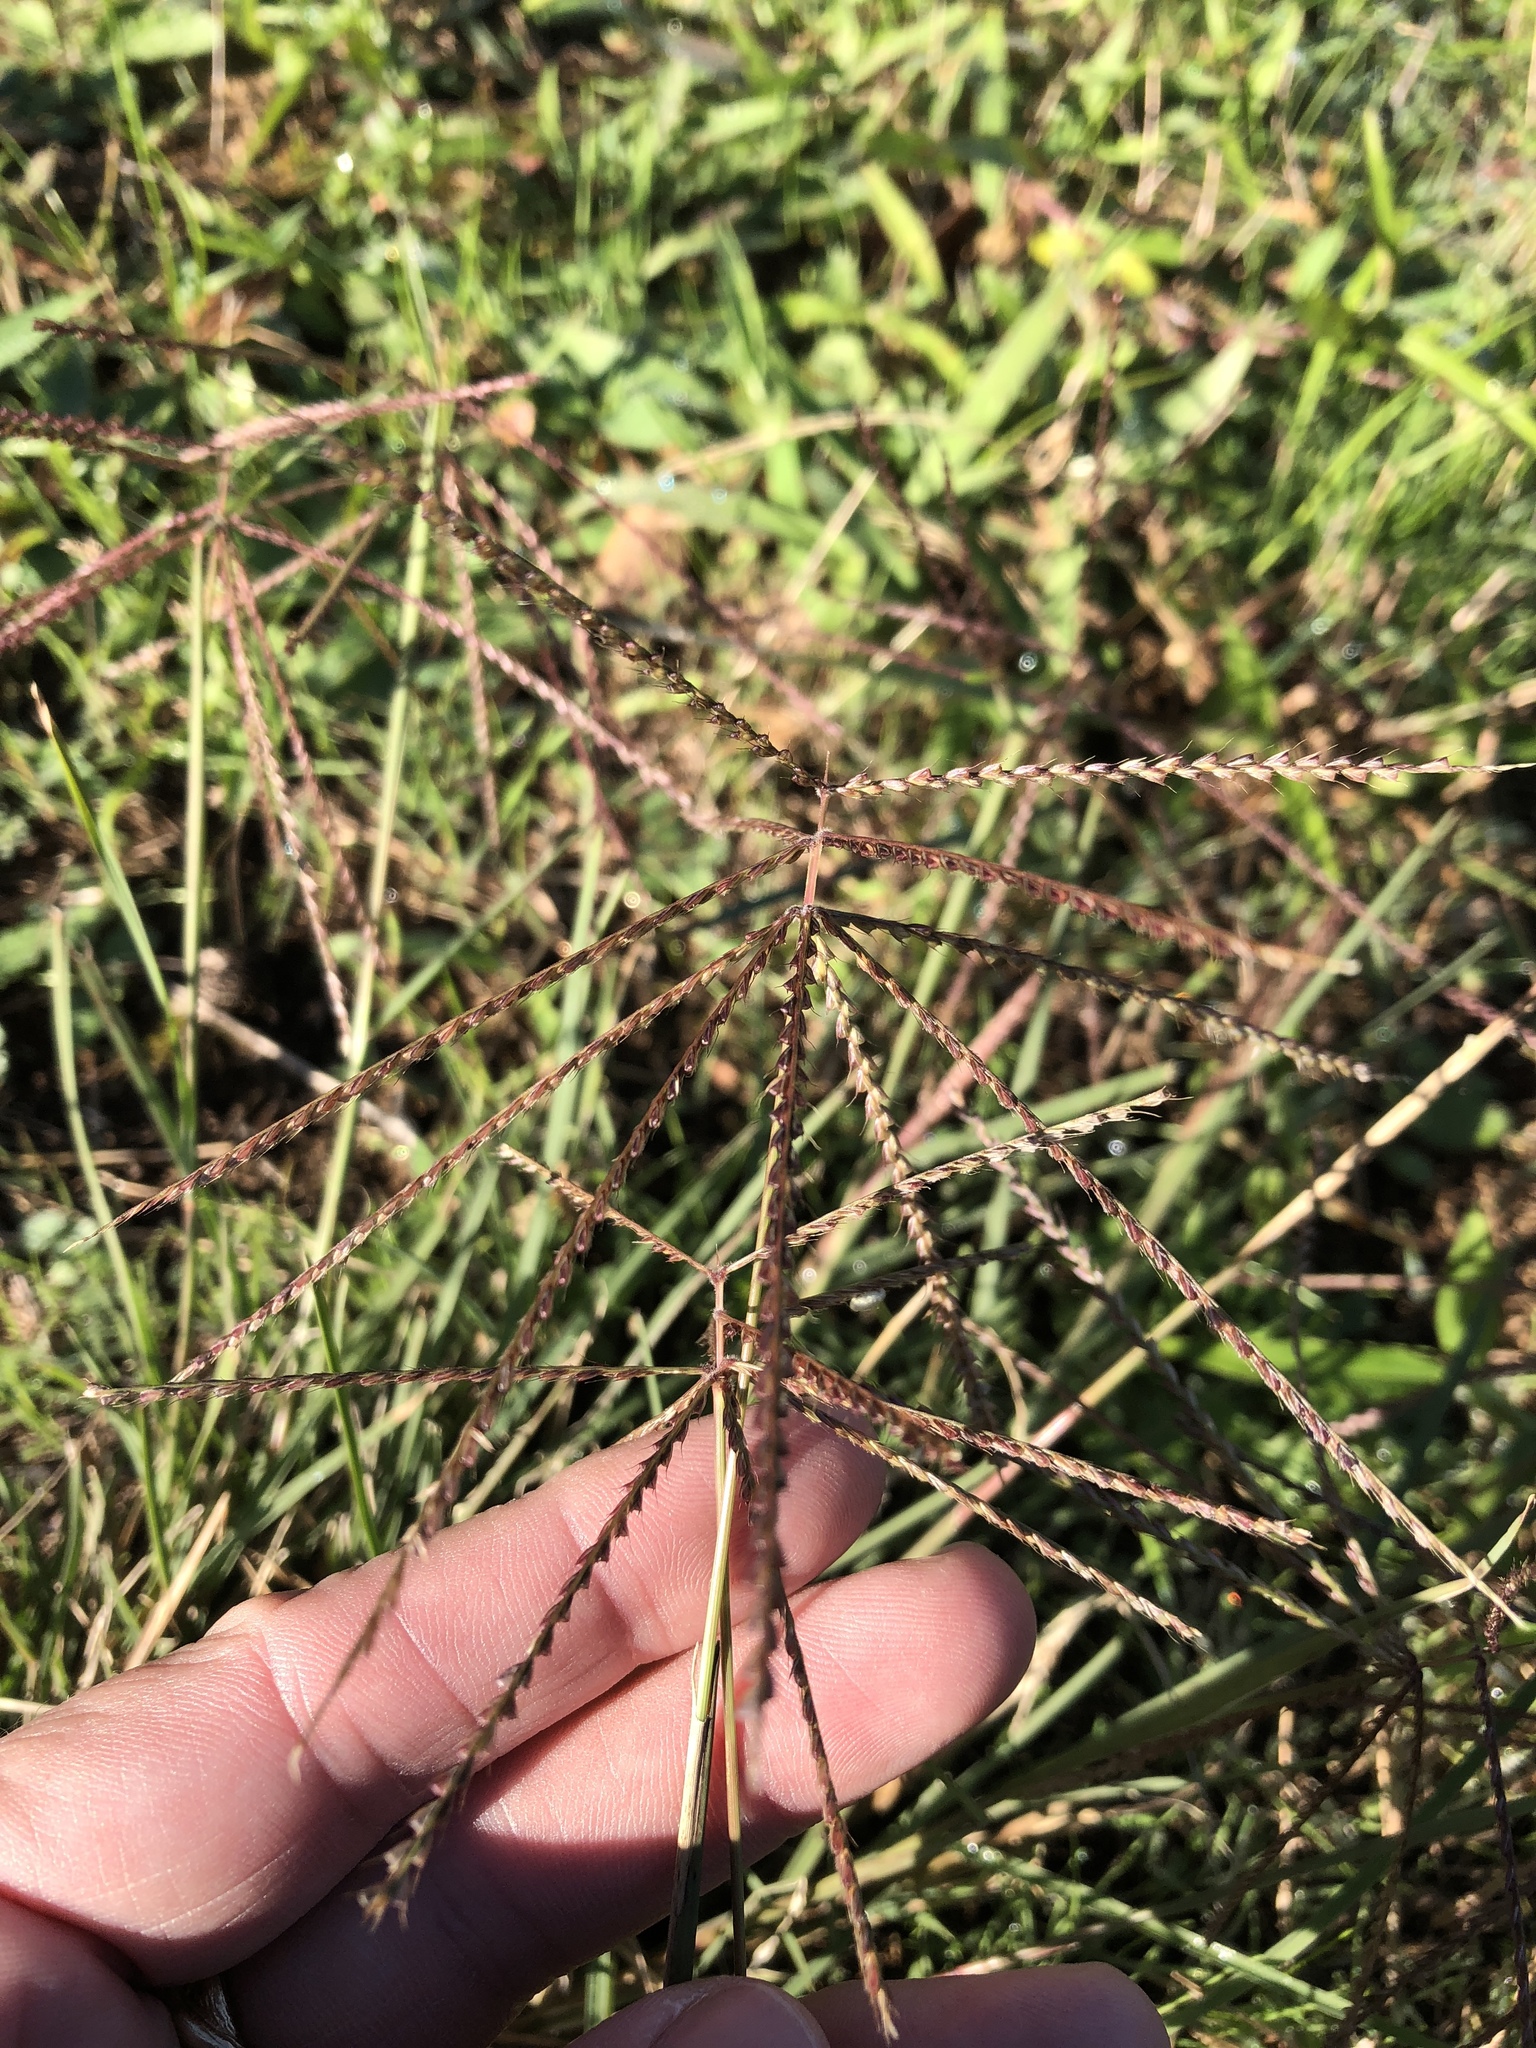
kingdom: Plantae
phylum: Tracheophyta
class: Liliopsida
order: Poales
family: Poaceae
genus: Chloris
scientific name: Chloris verticillata
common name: Tumble windmill grass
